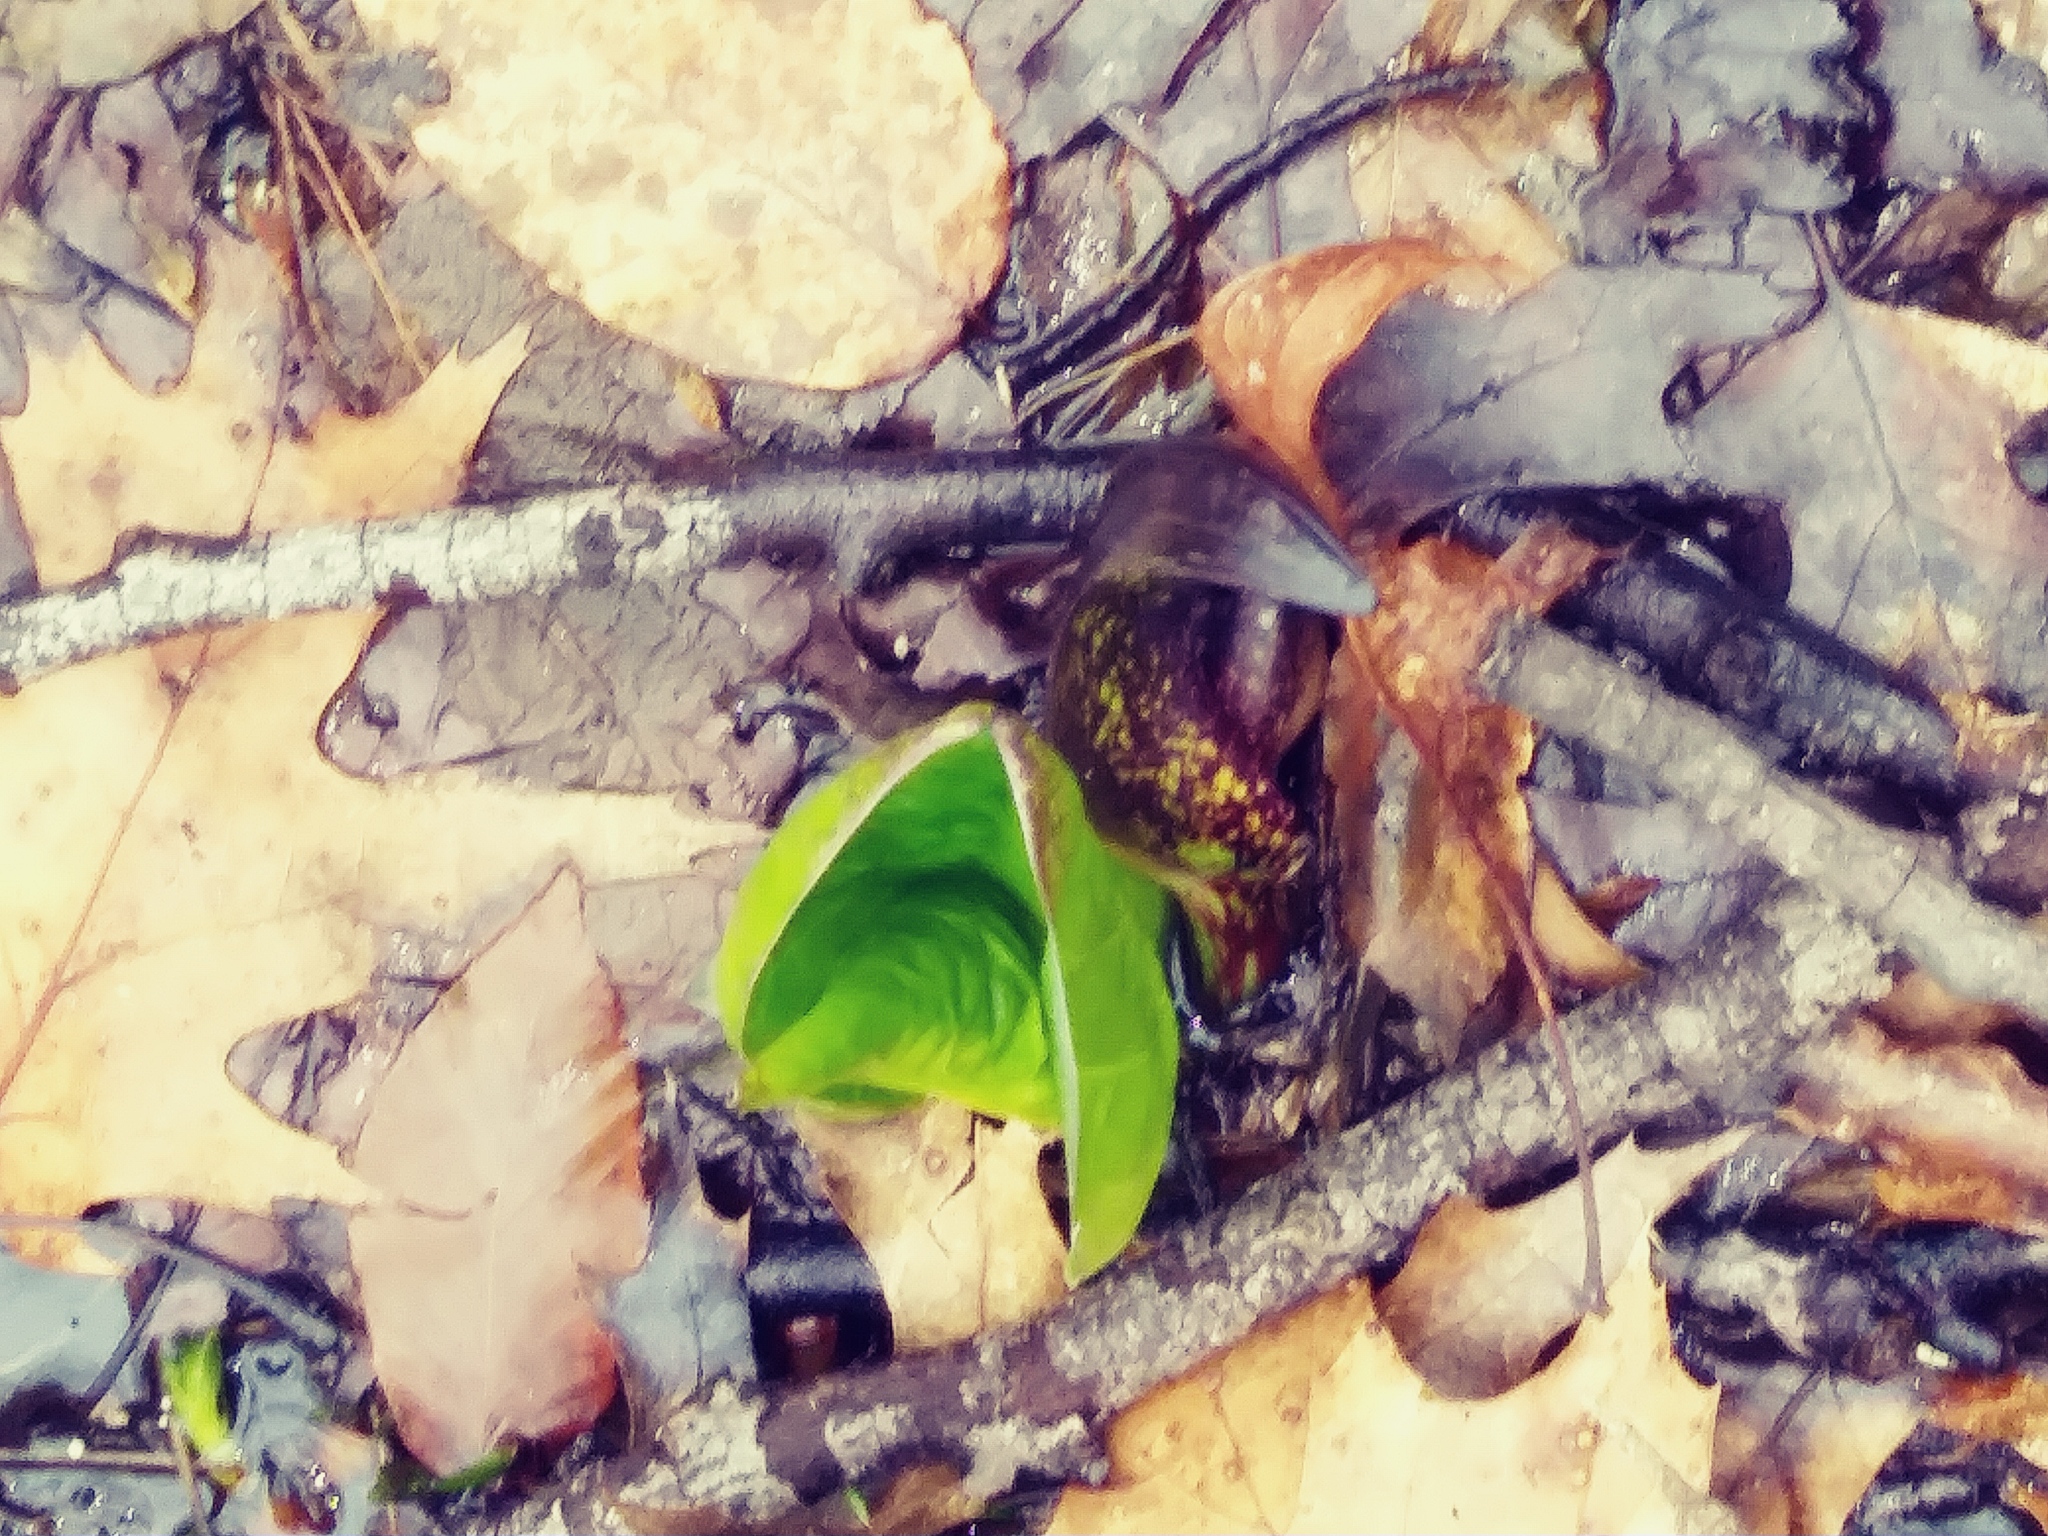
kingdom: Plantae
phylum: Tracheophyta
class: Liliopsida
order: Alismatales
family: Araceae
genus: Symplocarpus
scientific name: Symplocarpus foetidus
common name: Eastern skunk cabbage
